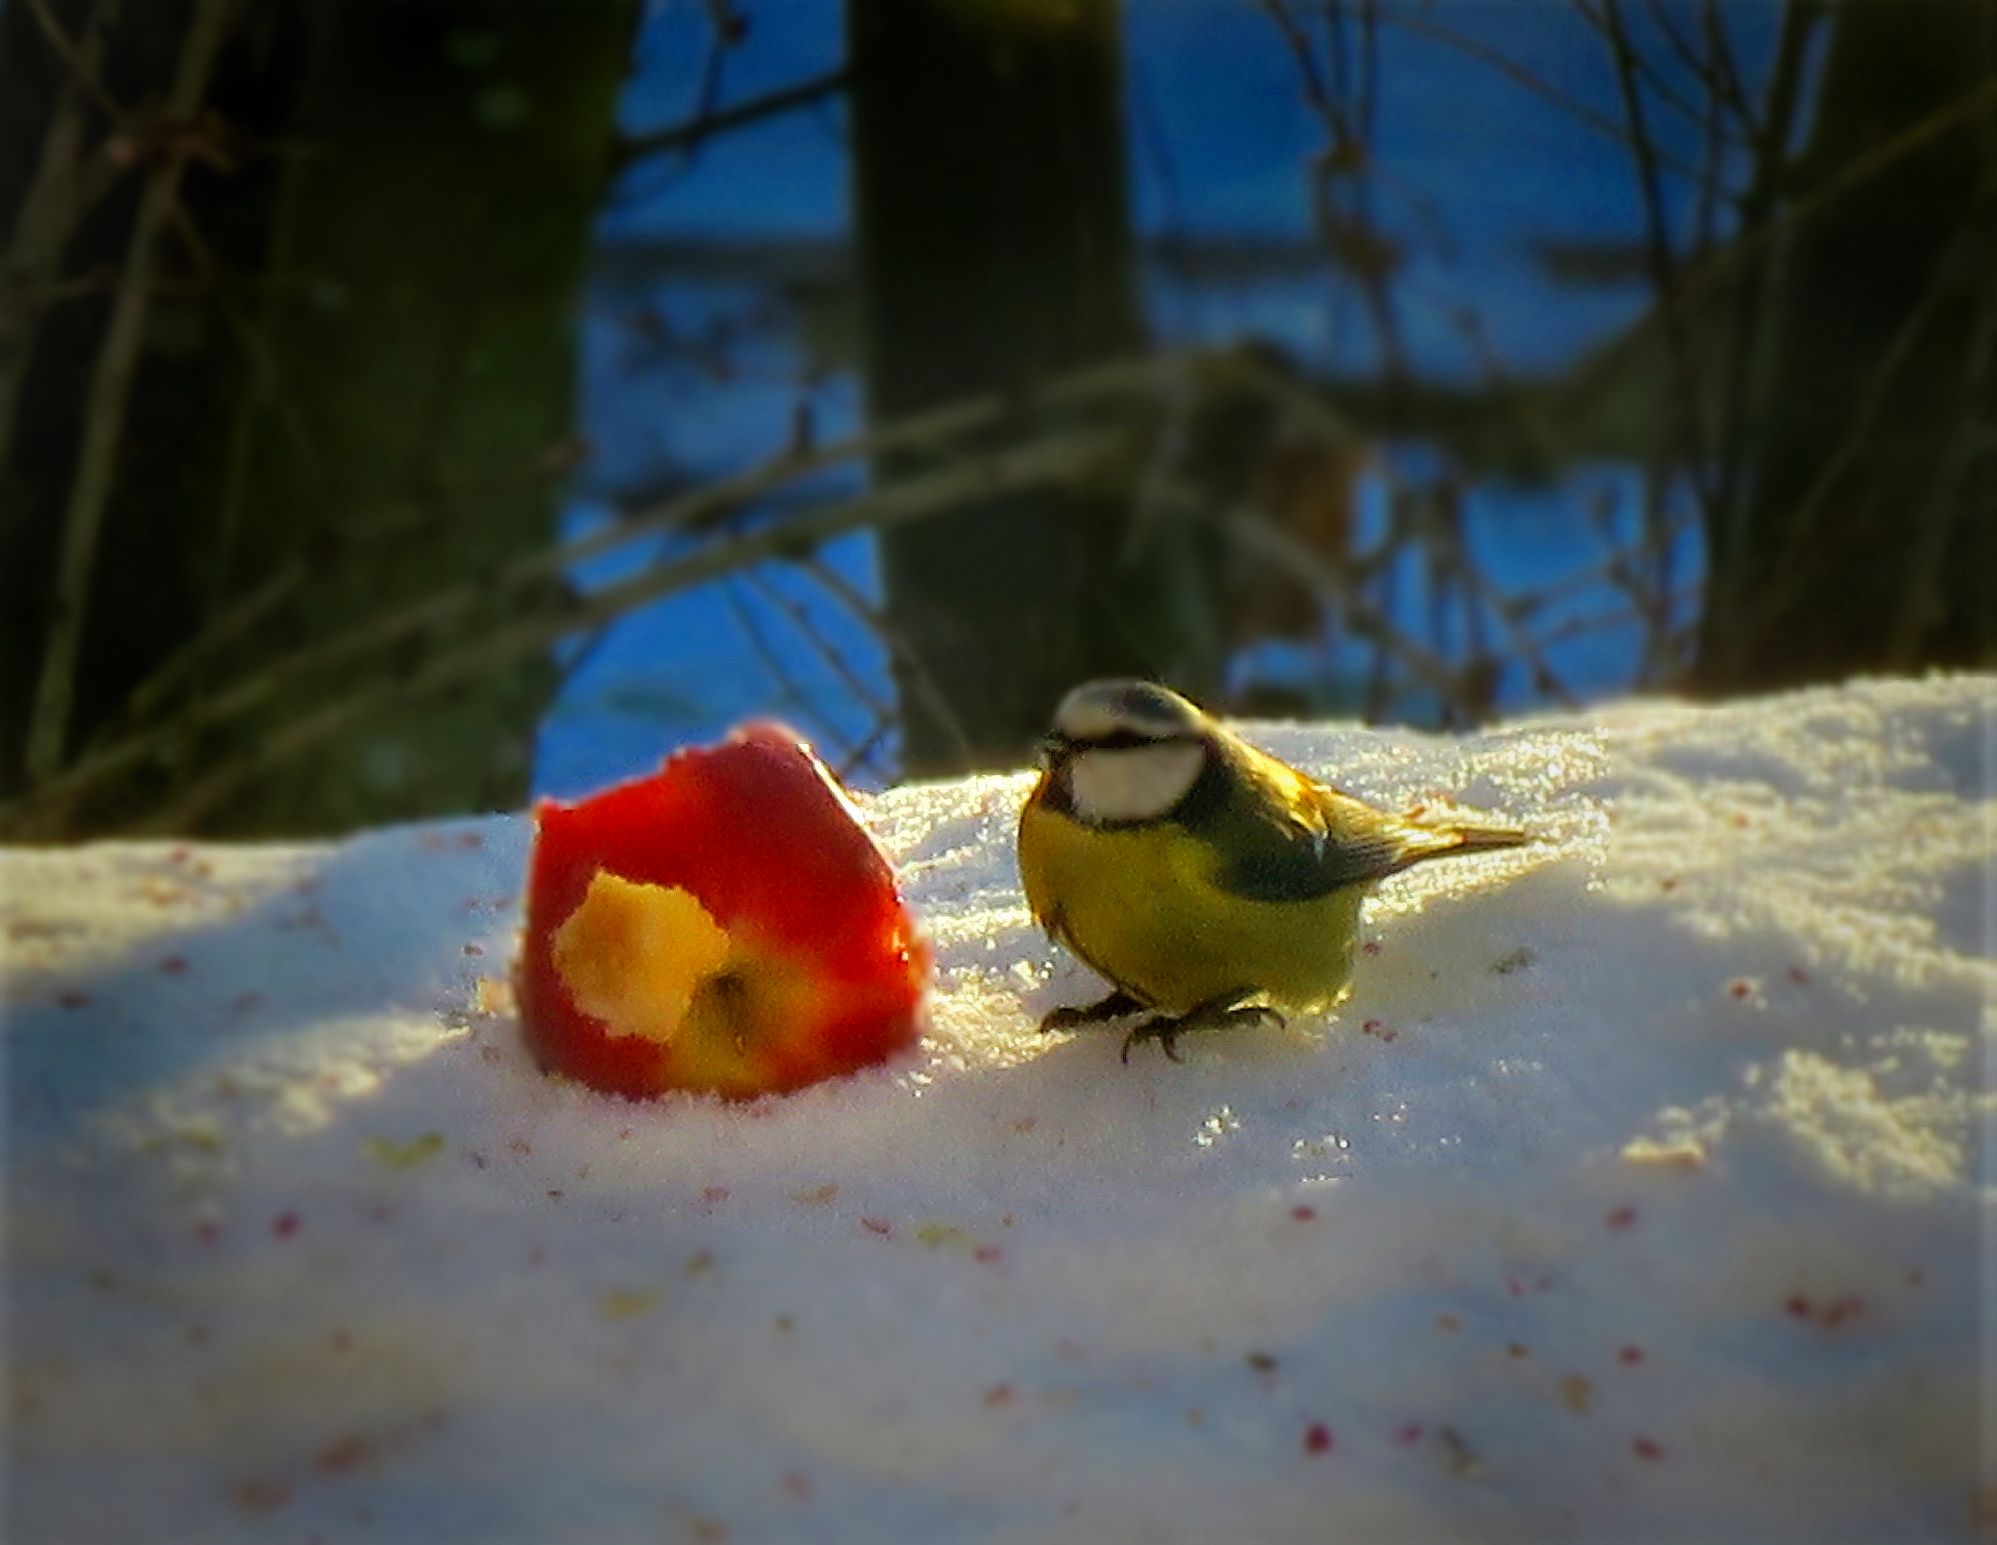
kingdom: Animalia
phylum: Chordata
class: Aves
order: Passeriformes
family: Paridae
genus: Cyanistes
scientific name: Cyanistes caeruleus
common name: Eurasian blue tit
